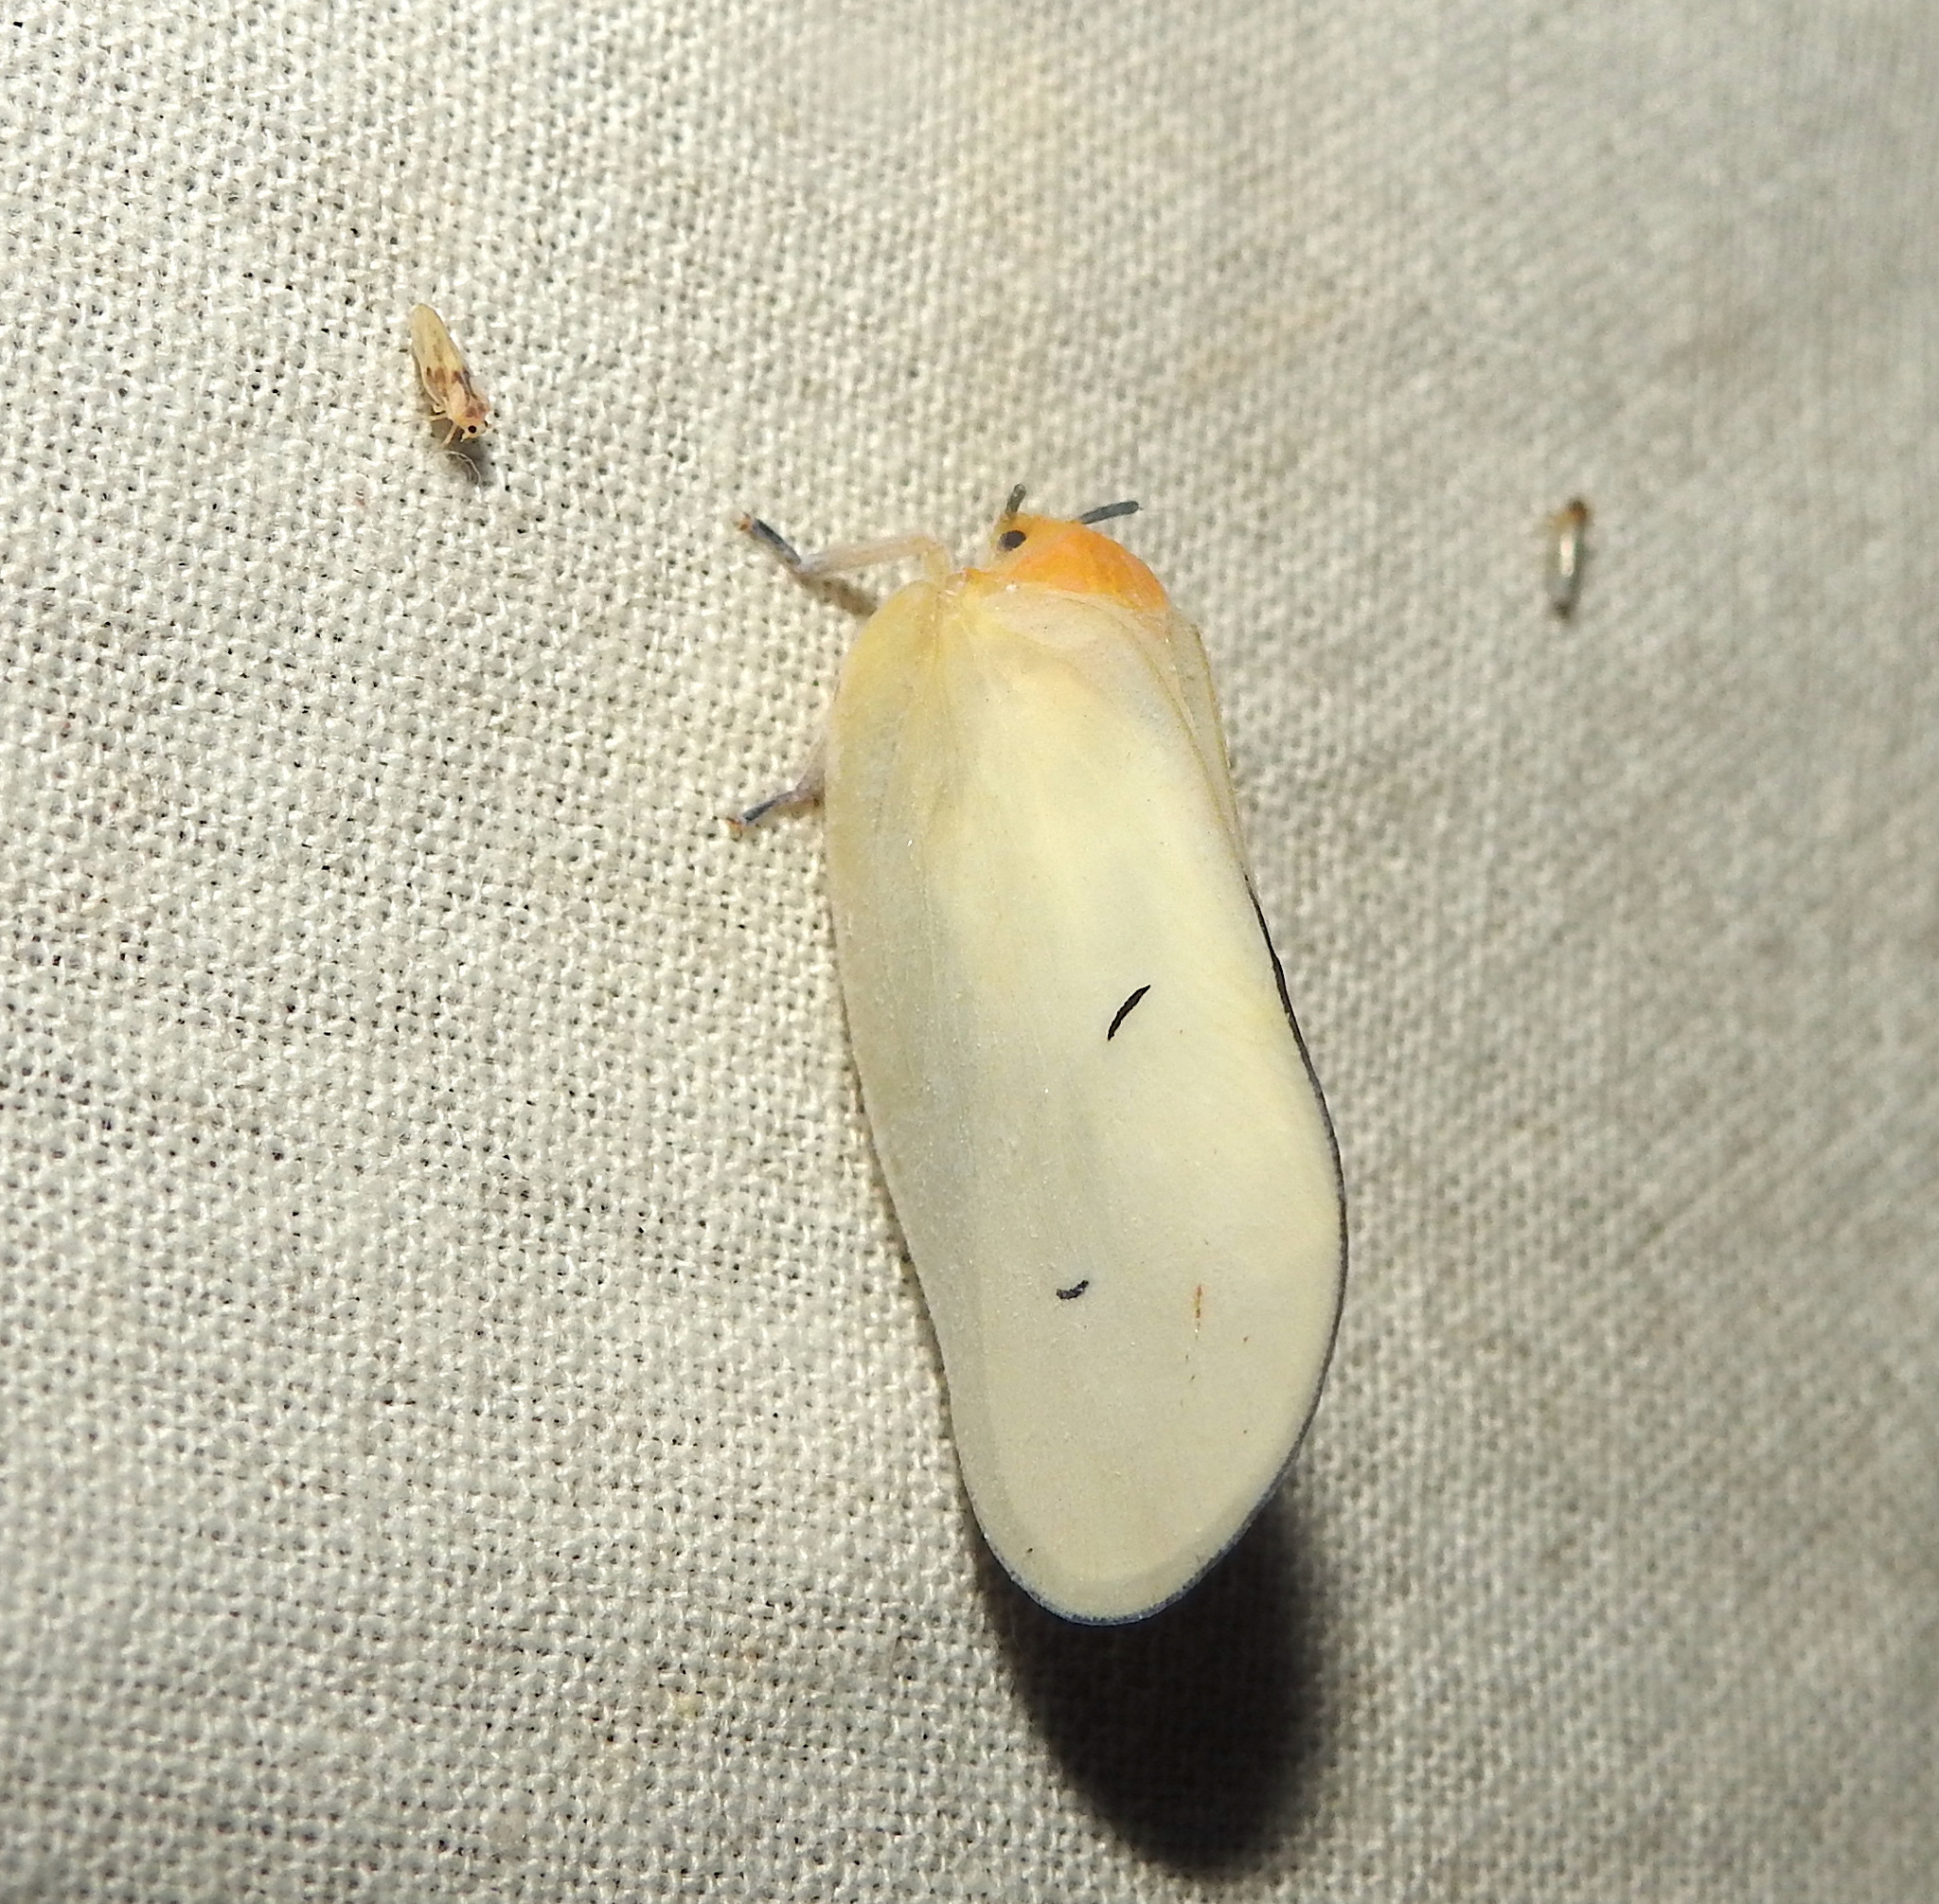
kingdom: Animalia
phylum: Arthropoda
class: Insecta
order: Hemiptera
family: Flatidae
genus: Flatida
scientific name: Flatida viridula
